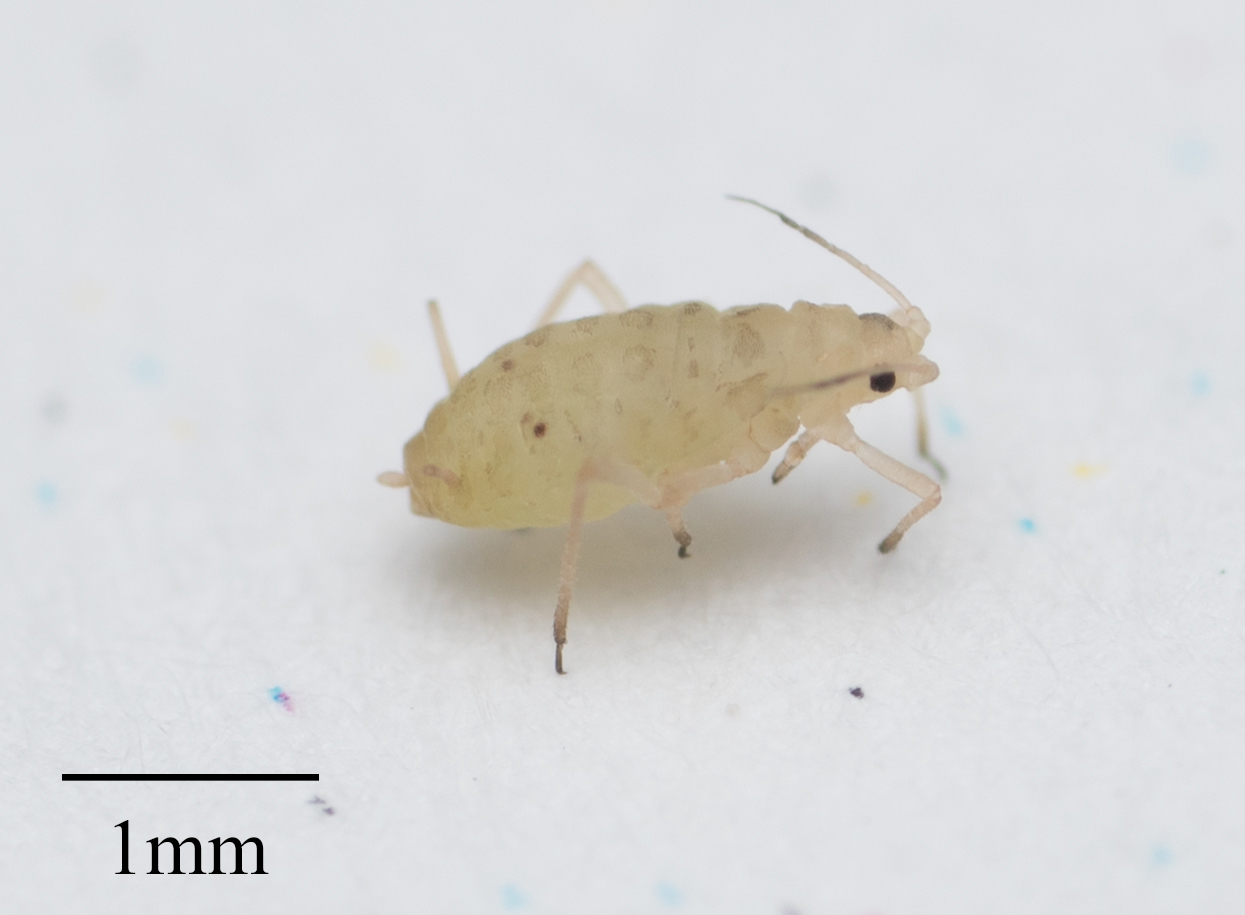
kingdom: Animalia
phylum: Arthropoda
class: Insecta
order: Hemiptera
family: Aphididae
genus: Myzus
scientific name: Myzus hemerocallis
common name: Hemerocallis aphid
